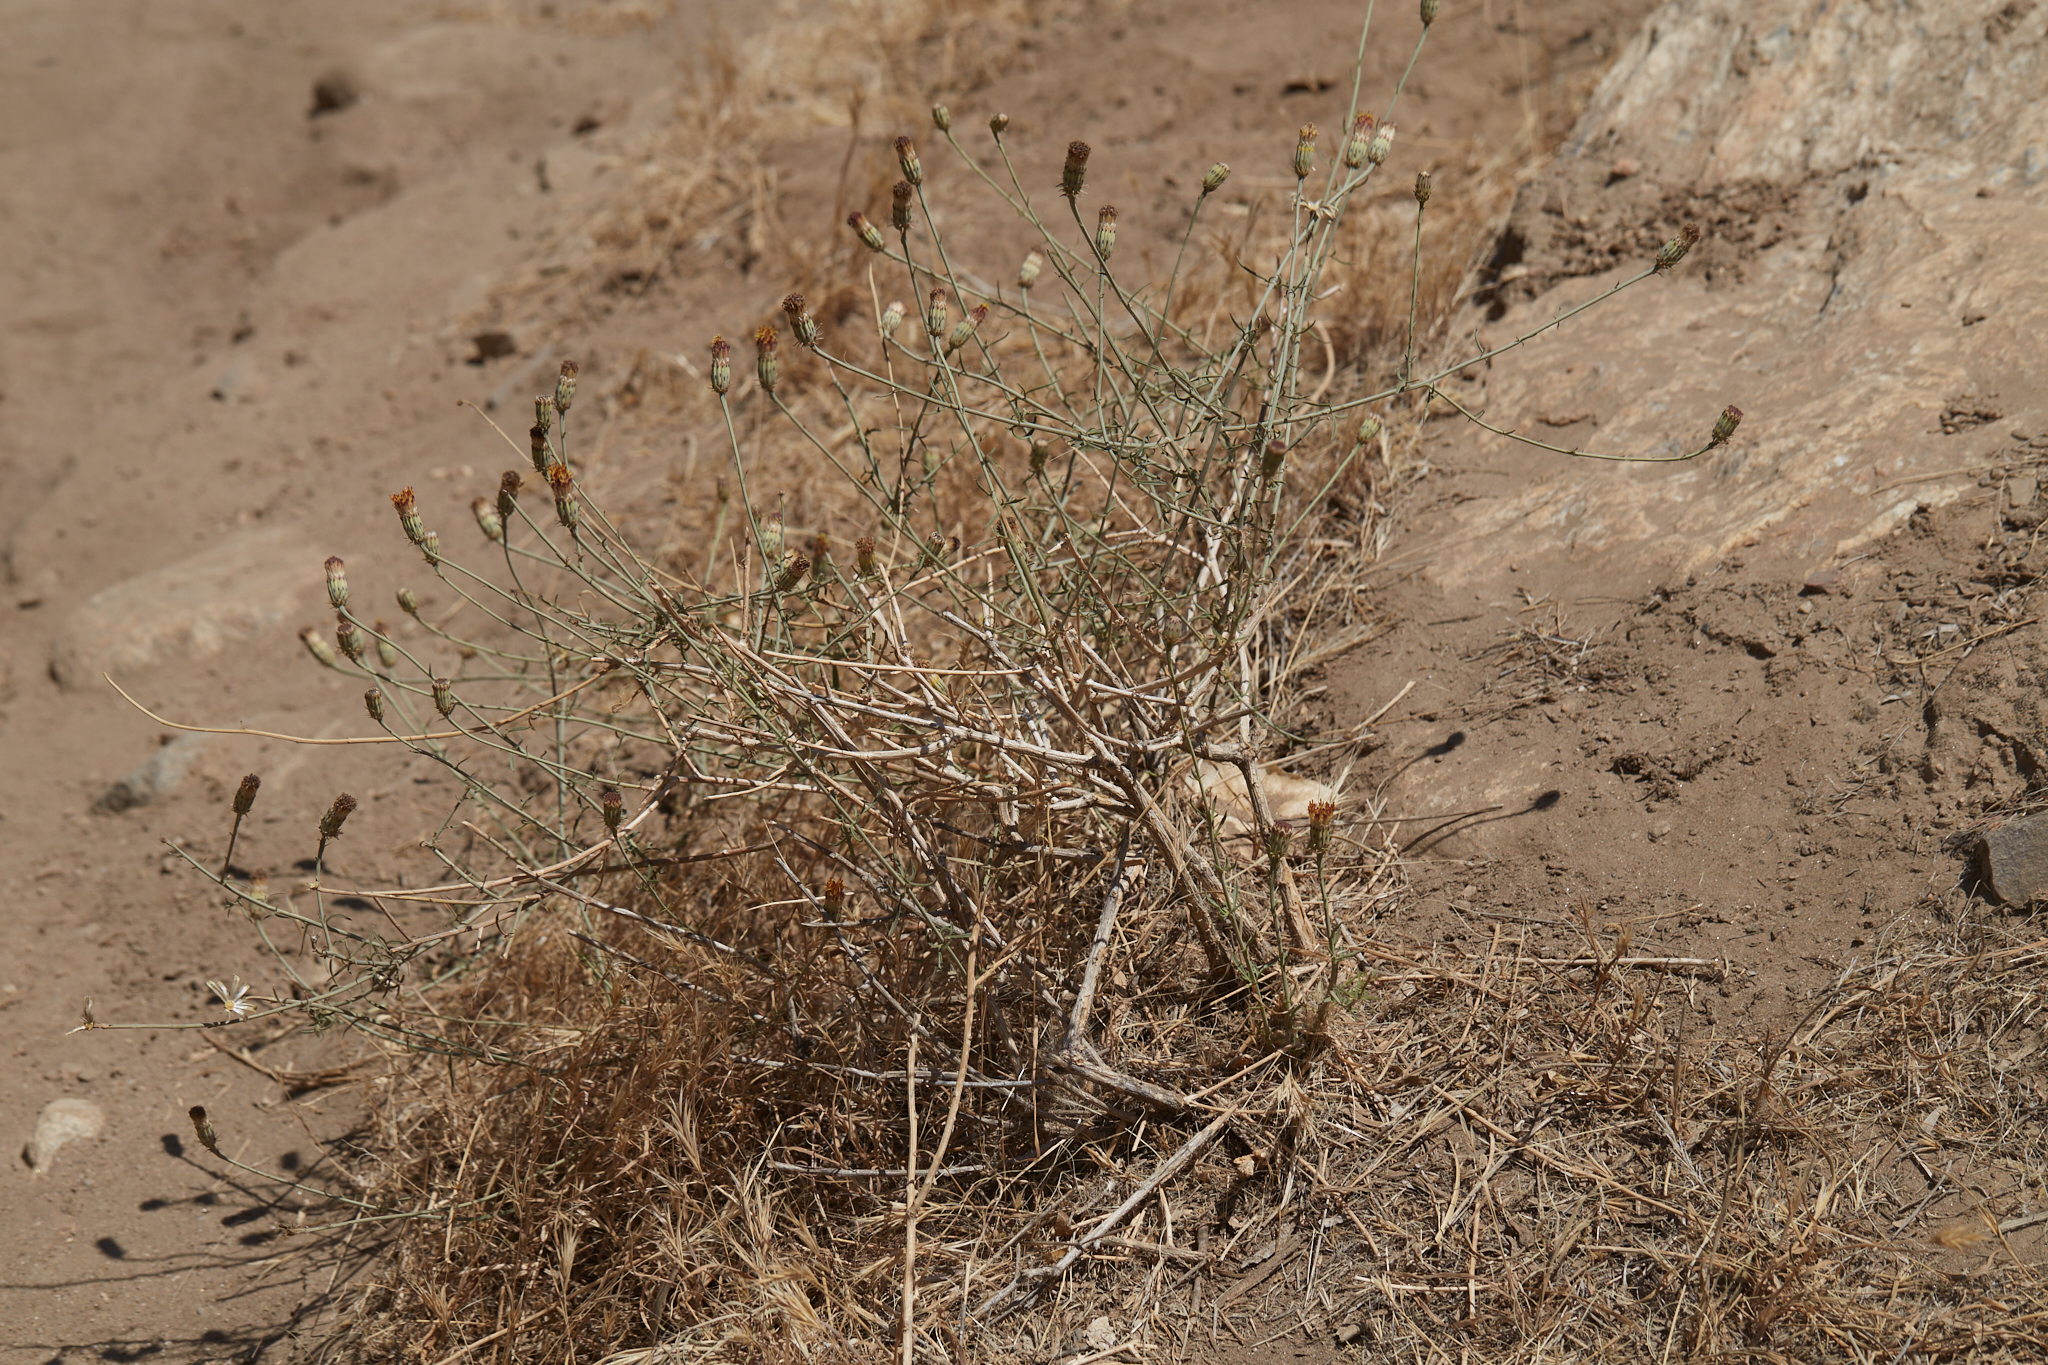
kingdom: Plantae
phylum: Tracheophyta
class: Magnoliopsida
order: Asterales
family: Asteraceae
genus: Adenophyllum
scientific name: Adenophyllum porophylloides
